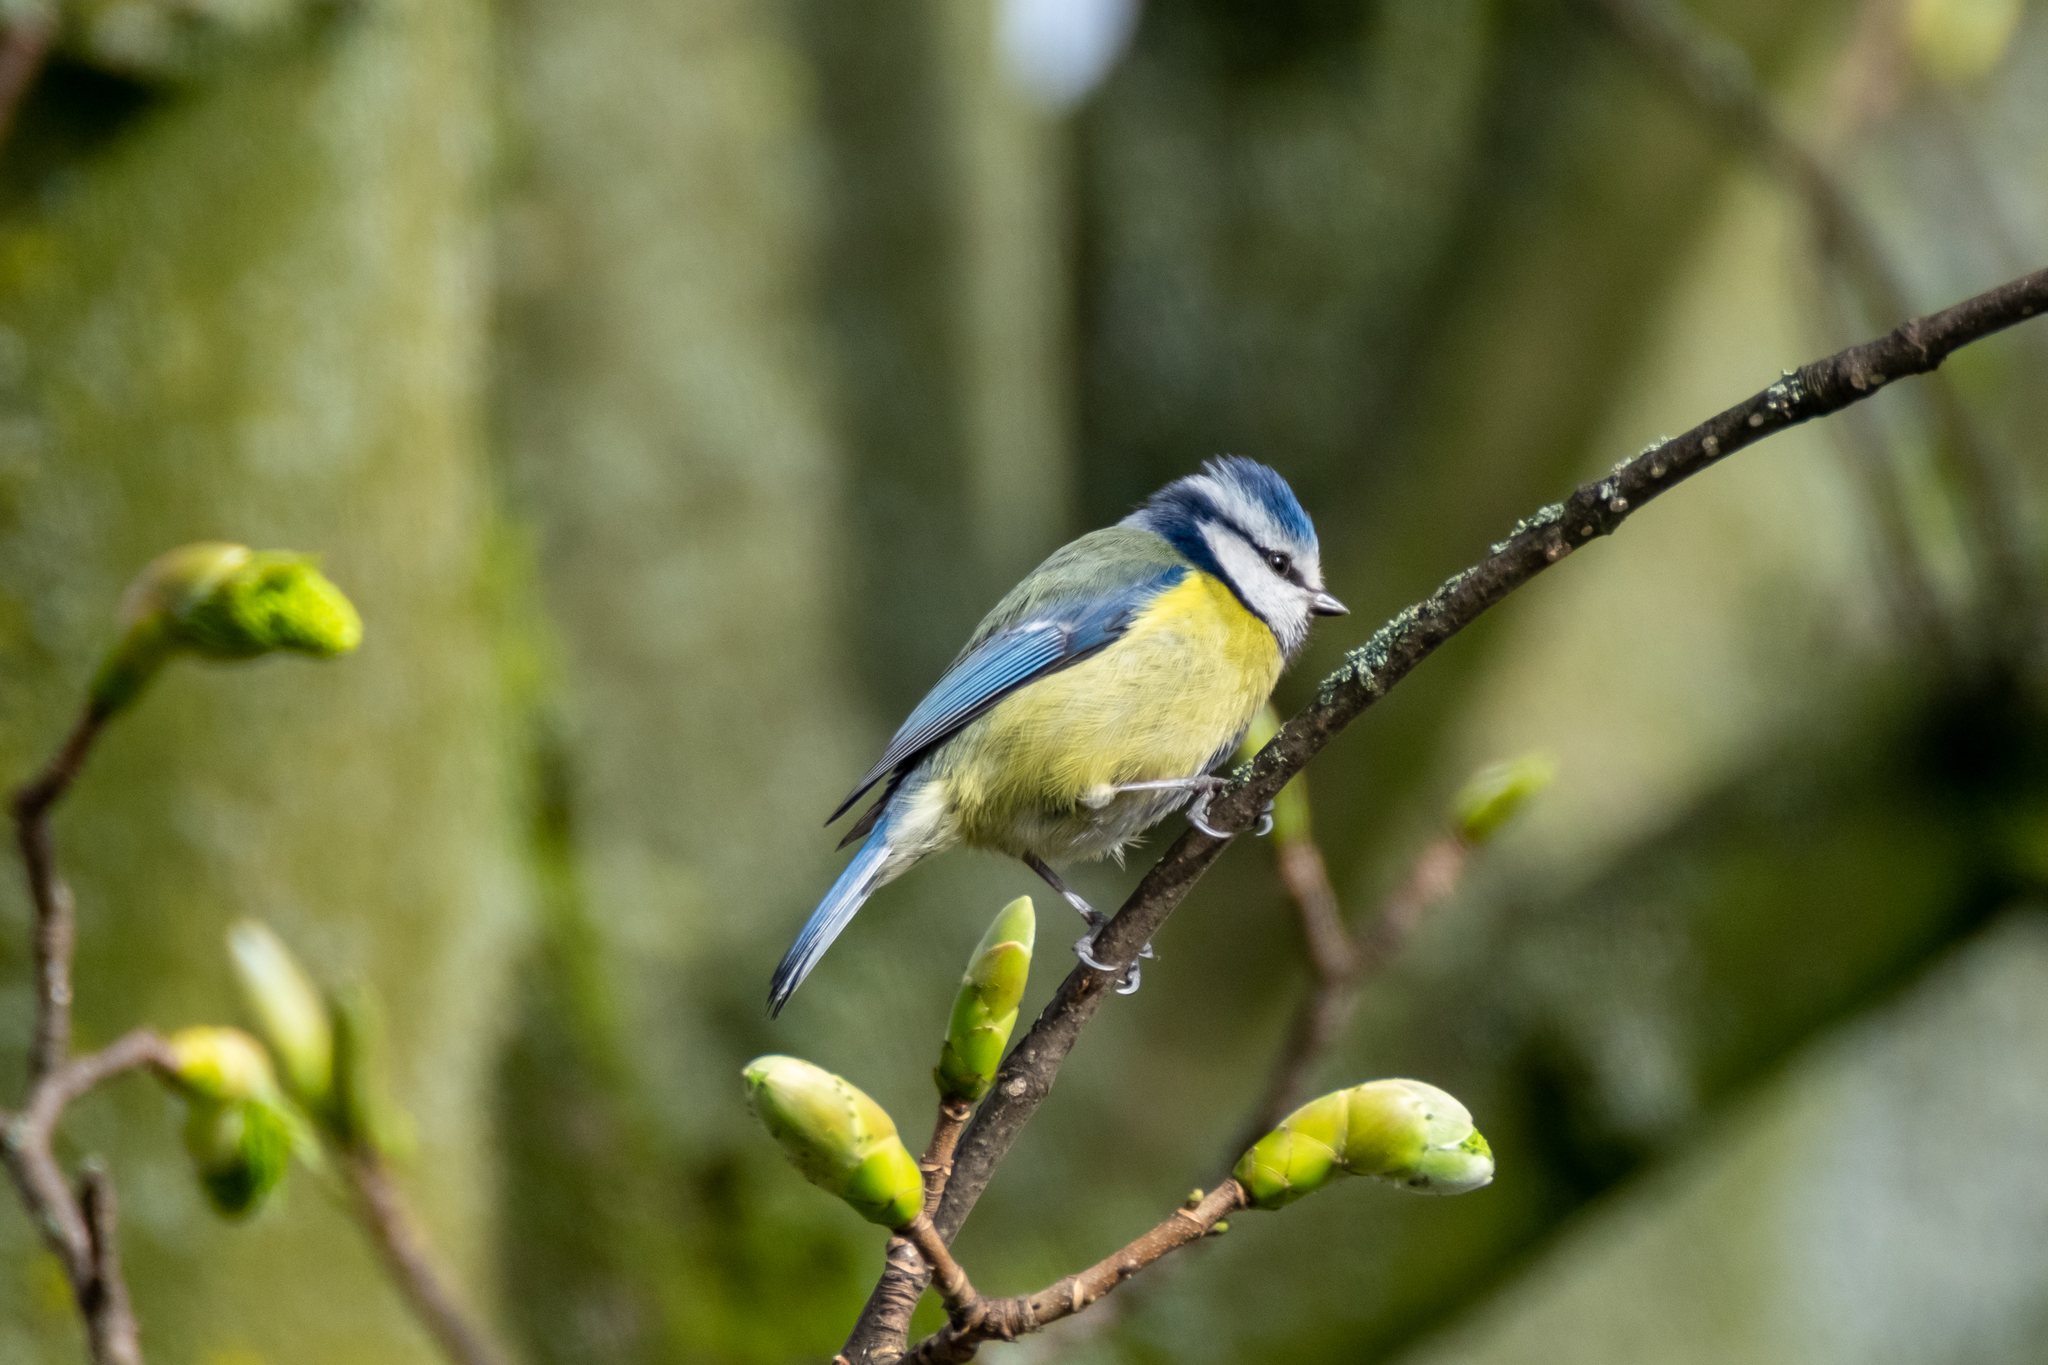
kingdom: Animalia
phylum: Chordata
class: Aves
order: Passeriformes
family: Paridae
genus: Cyanistes
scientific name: Cyanistes caeruleus
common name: Eurasian blue tit
